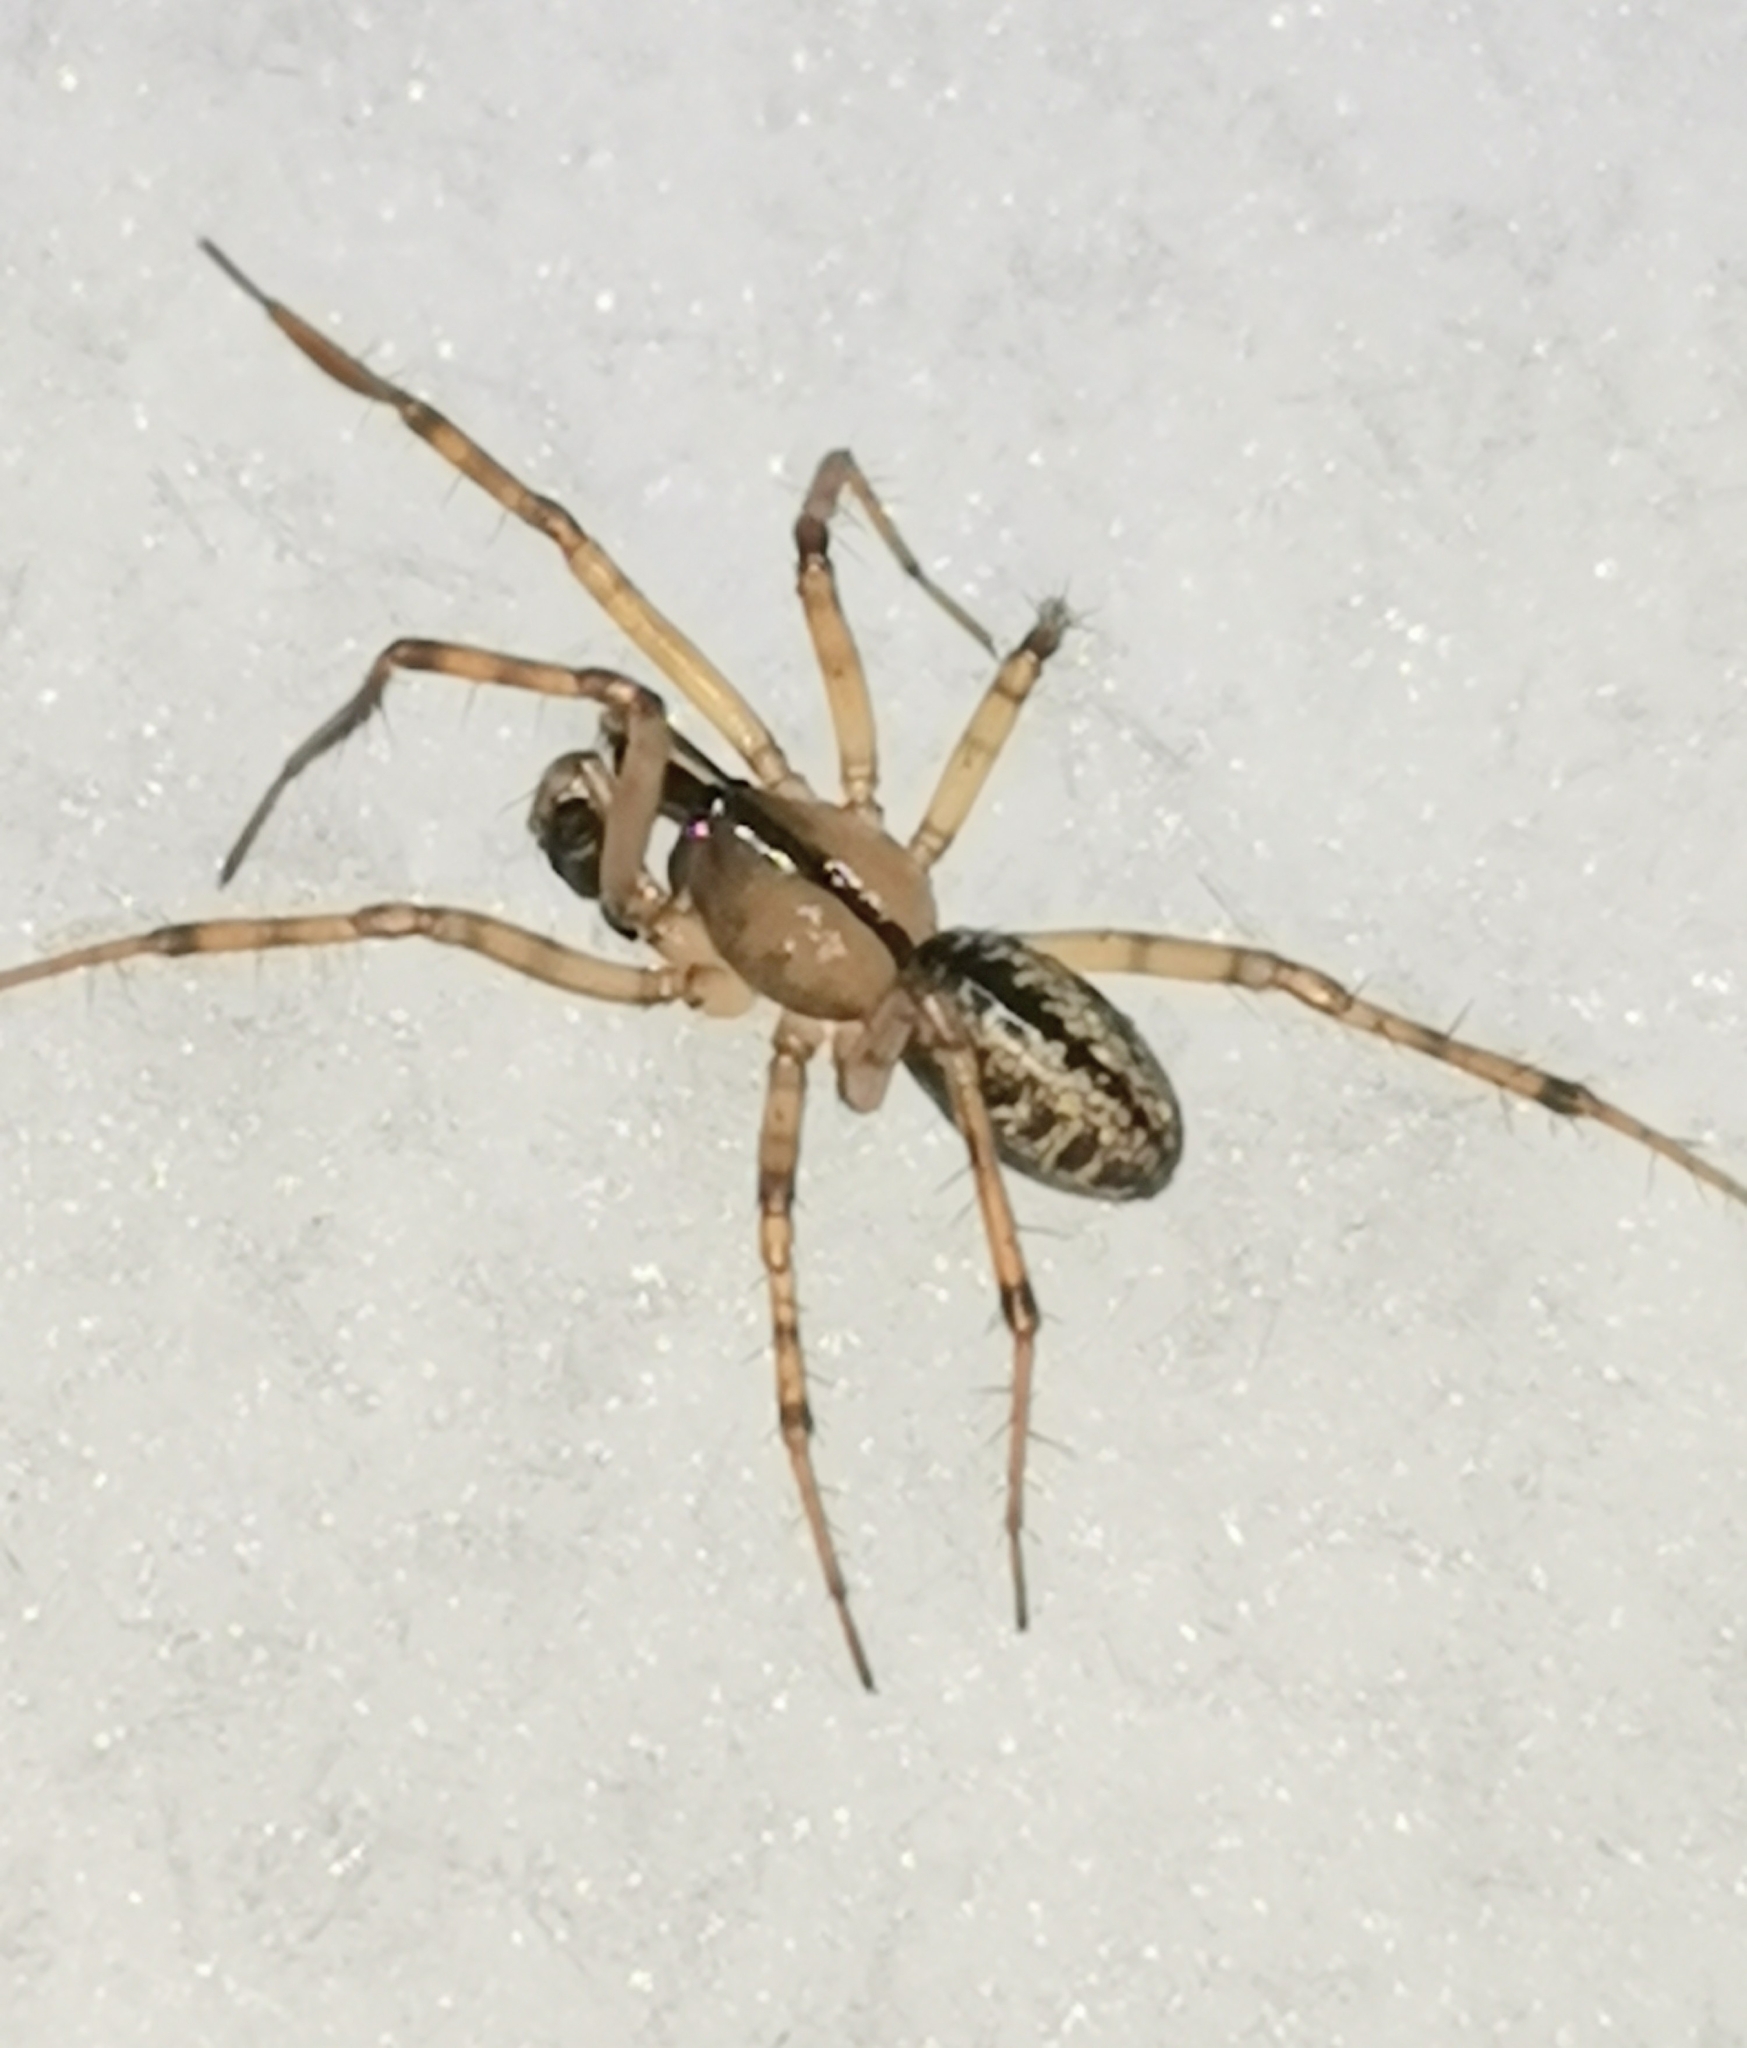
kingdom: Animalia
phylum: Arthropoda
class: Arachnida
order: Araneae
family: Linyphiidae
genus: Stemonyphantes
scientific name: Stemonyphantes lineatus
